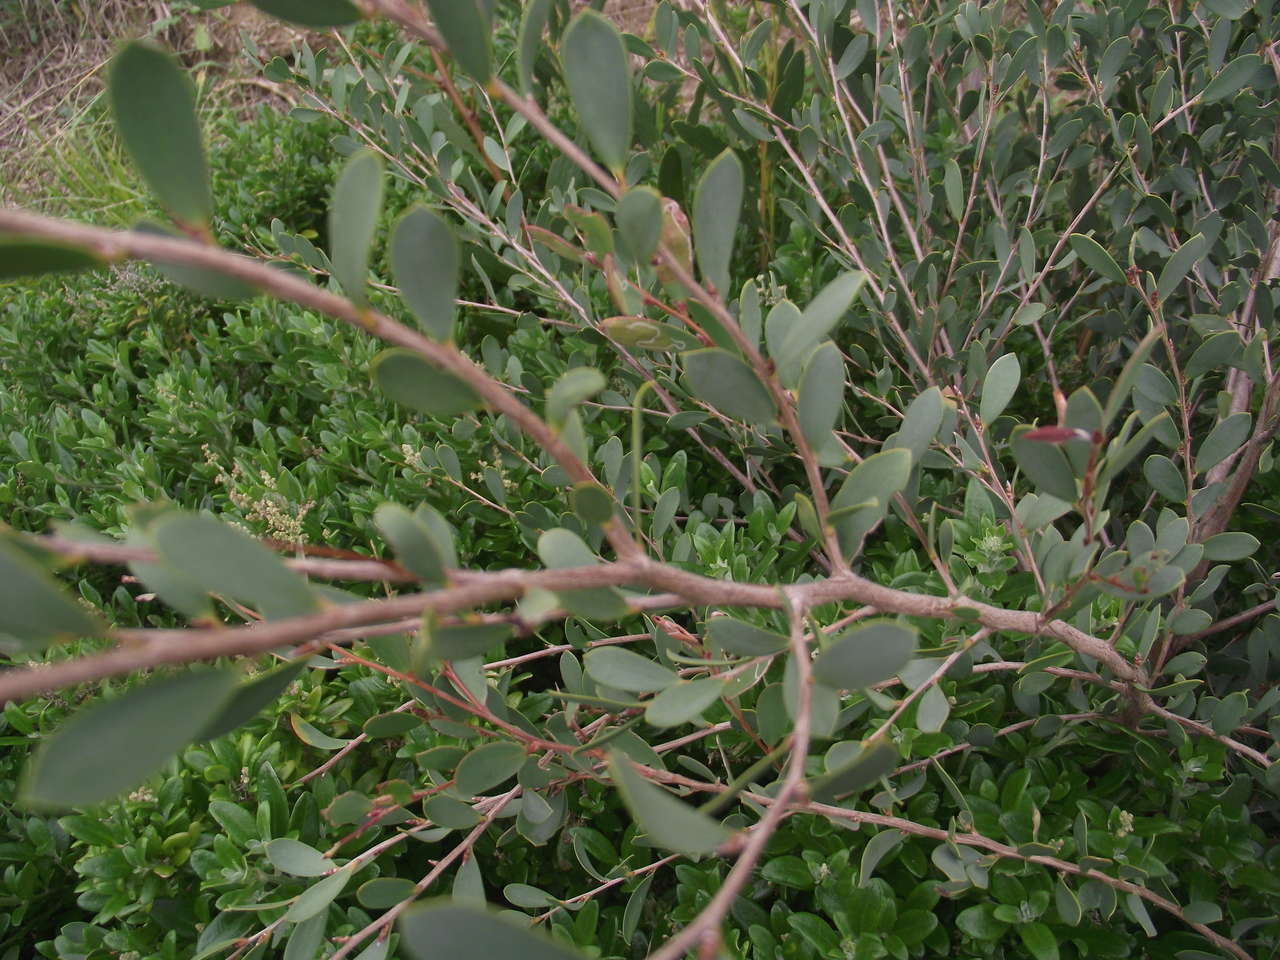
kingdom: Plantae
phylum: Tracheophyta
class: Magnoliopsida
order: Myrtales
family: Myrtaceae
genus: Leptospermum
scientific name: Leptospermum laevigatum
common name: Australian teatree
